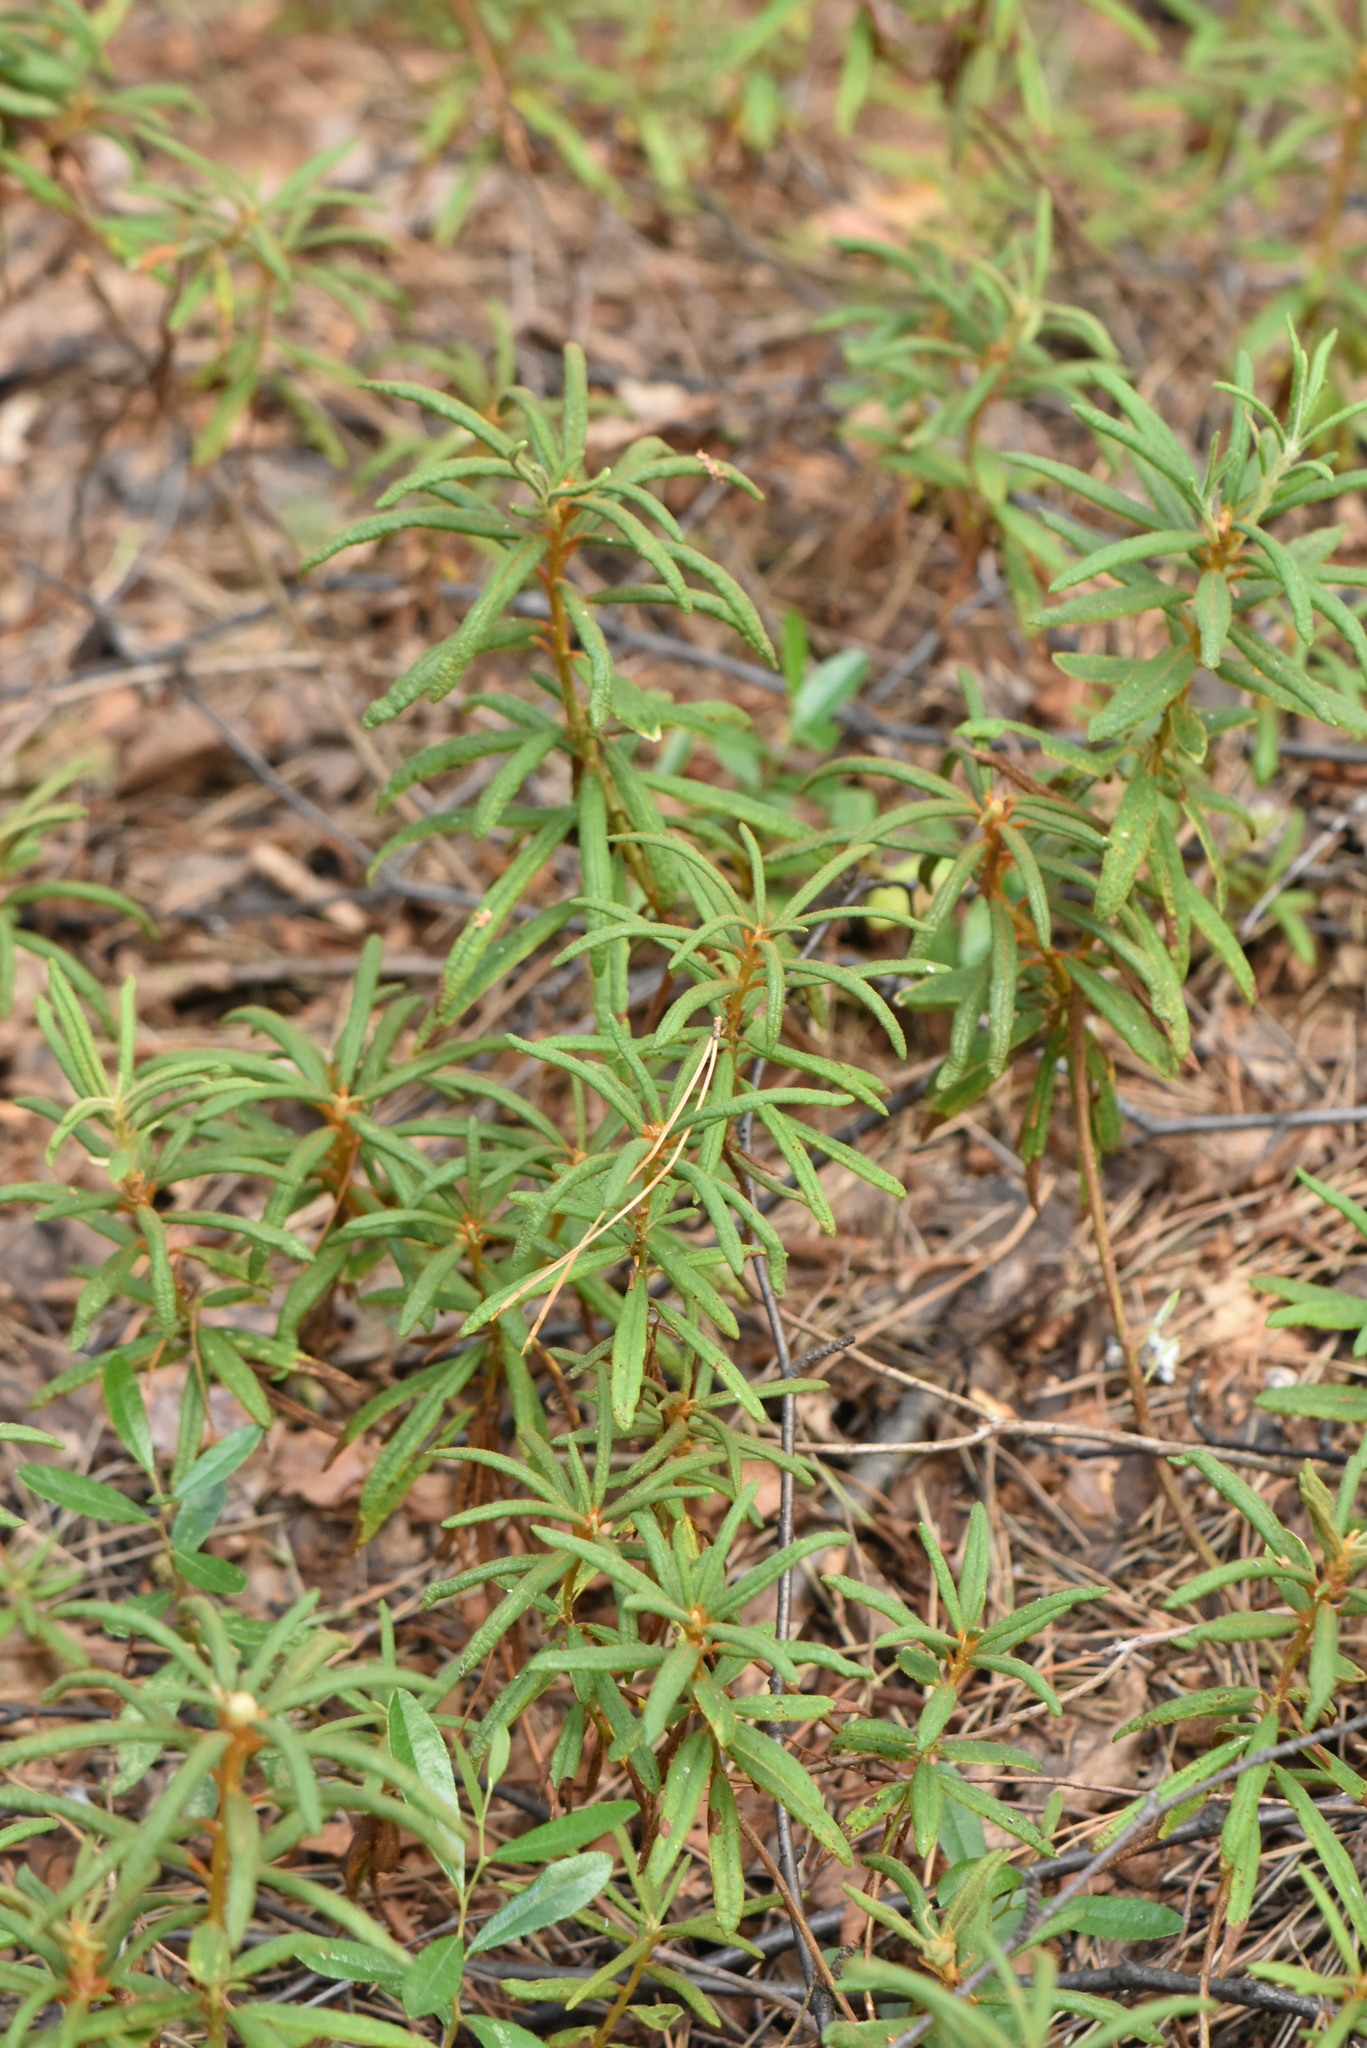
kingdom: Plantae
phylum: Tracheophyta
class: Magnoliopsida
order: Ericales
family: Ericaceae
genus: Rhododendron
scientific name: Rhododendron tomentosum
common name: Marsh labrador tea
